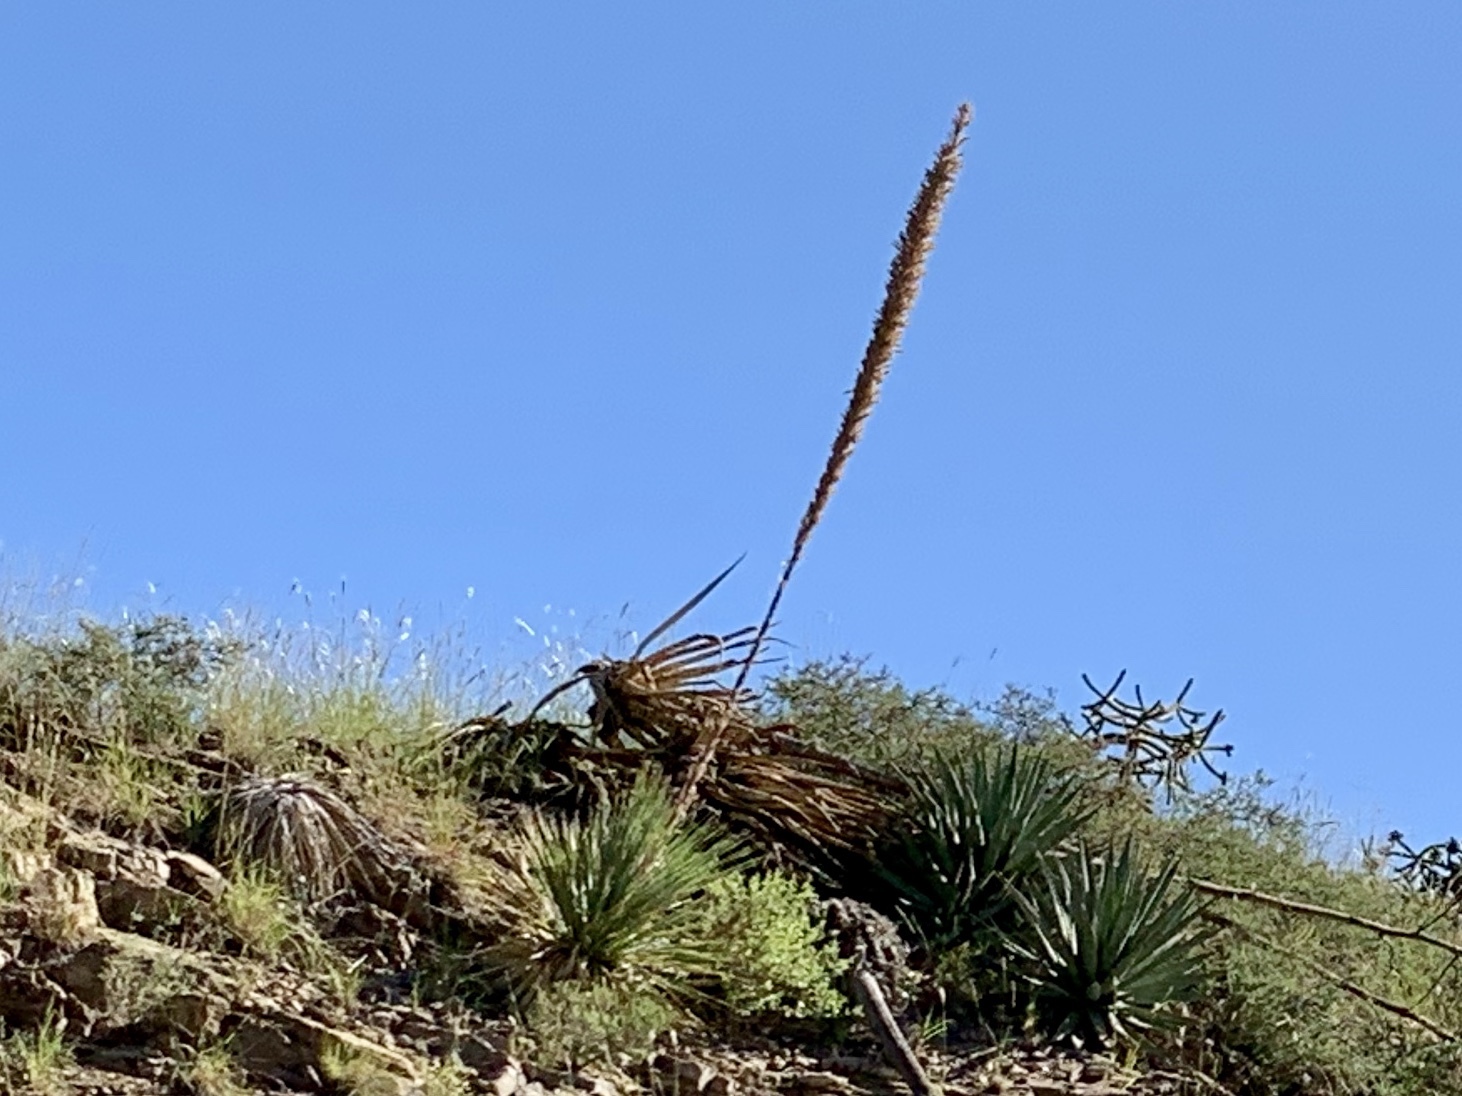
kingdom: Plantae
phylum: Tracheophyta
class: Liliopsida
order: Asparagales
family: Asparagaceae
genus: Dasylirion
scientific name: Dasylirion wheeleri
